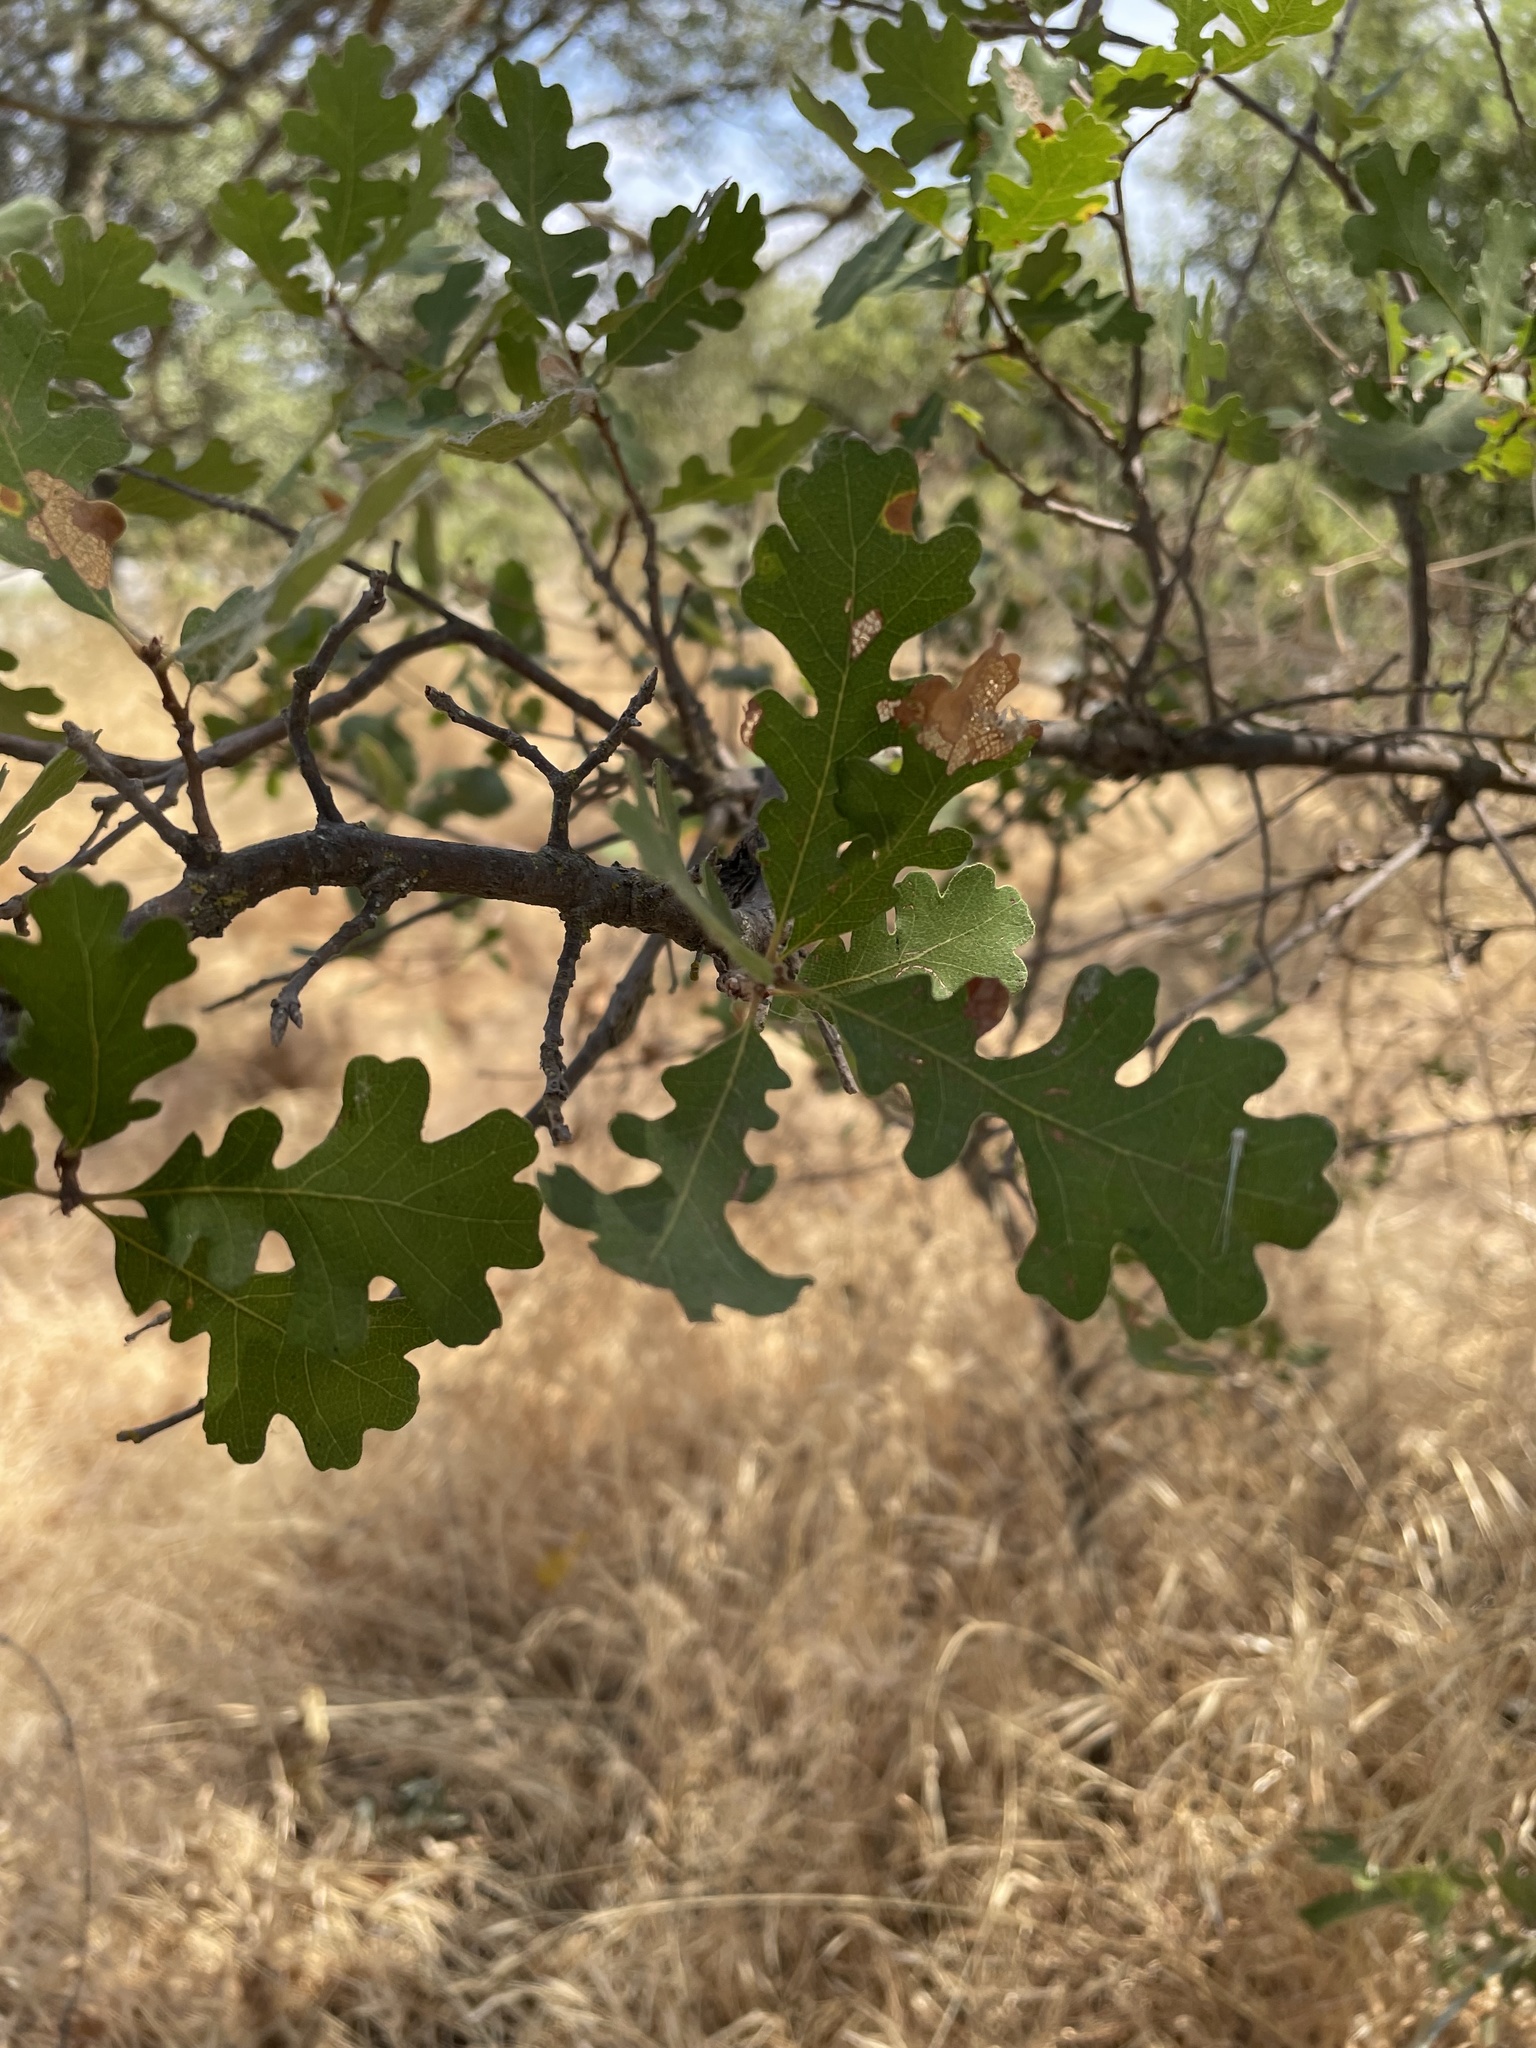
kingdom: Plantae
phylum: Tracheophyta
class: Magnoliopsida
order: Fagales
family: Fagaceae
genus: Quercus
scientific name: Quercus lobata
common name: Valley oak
